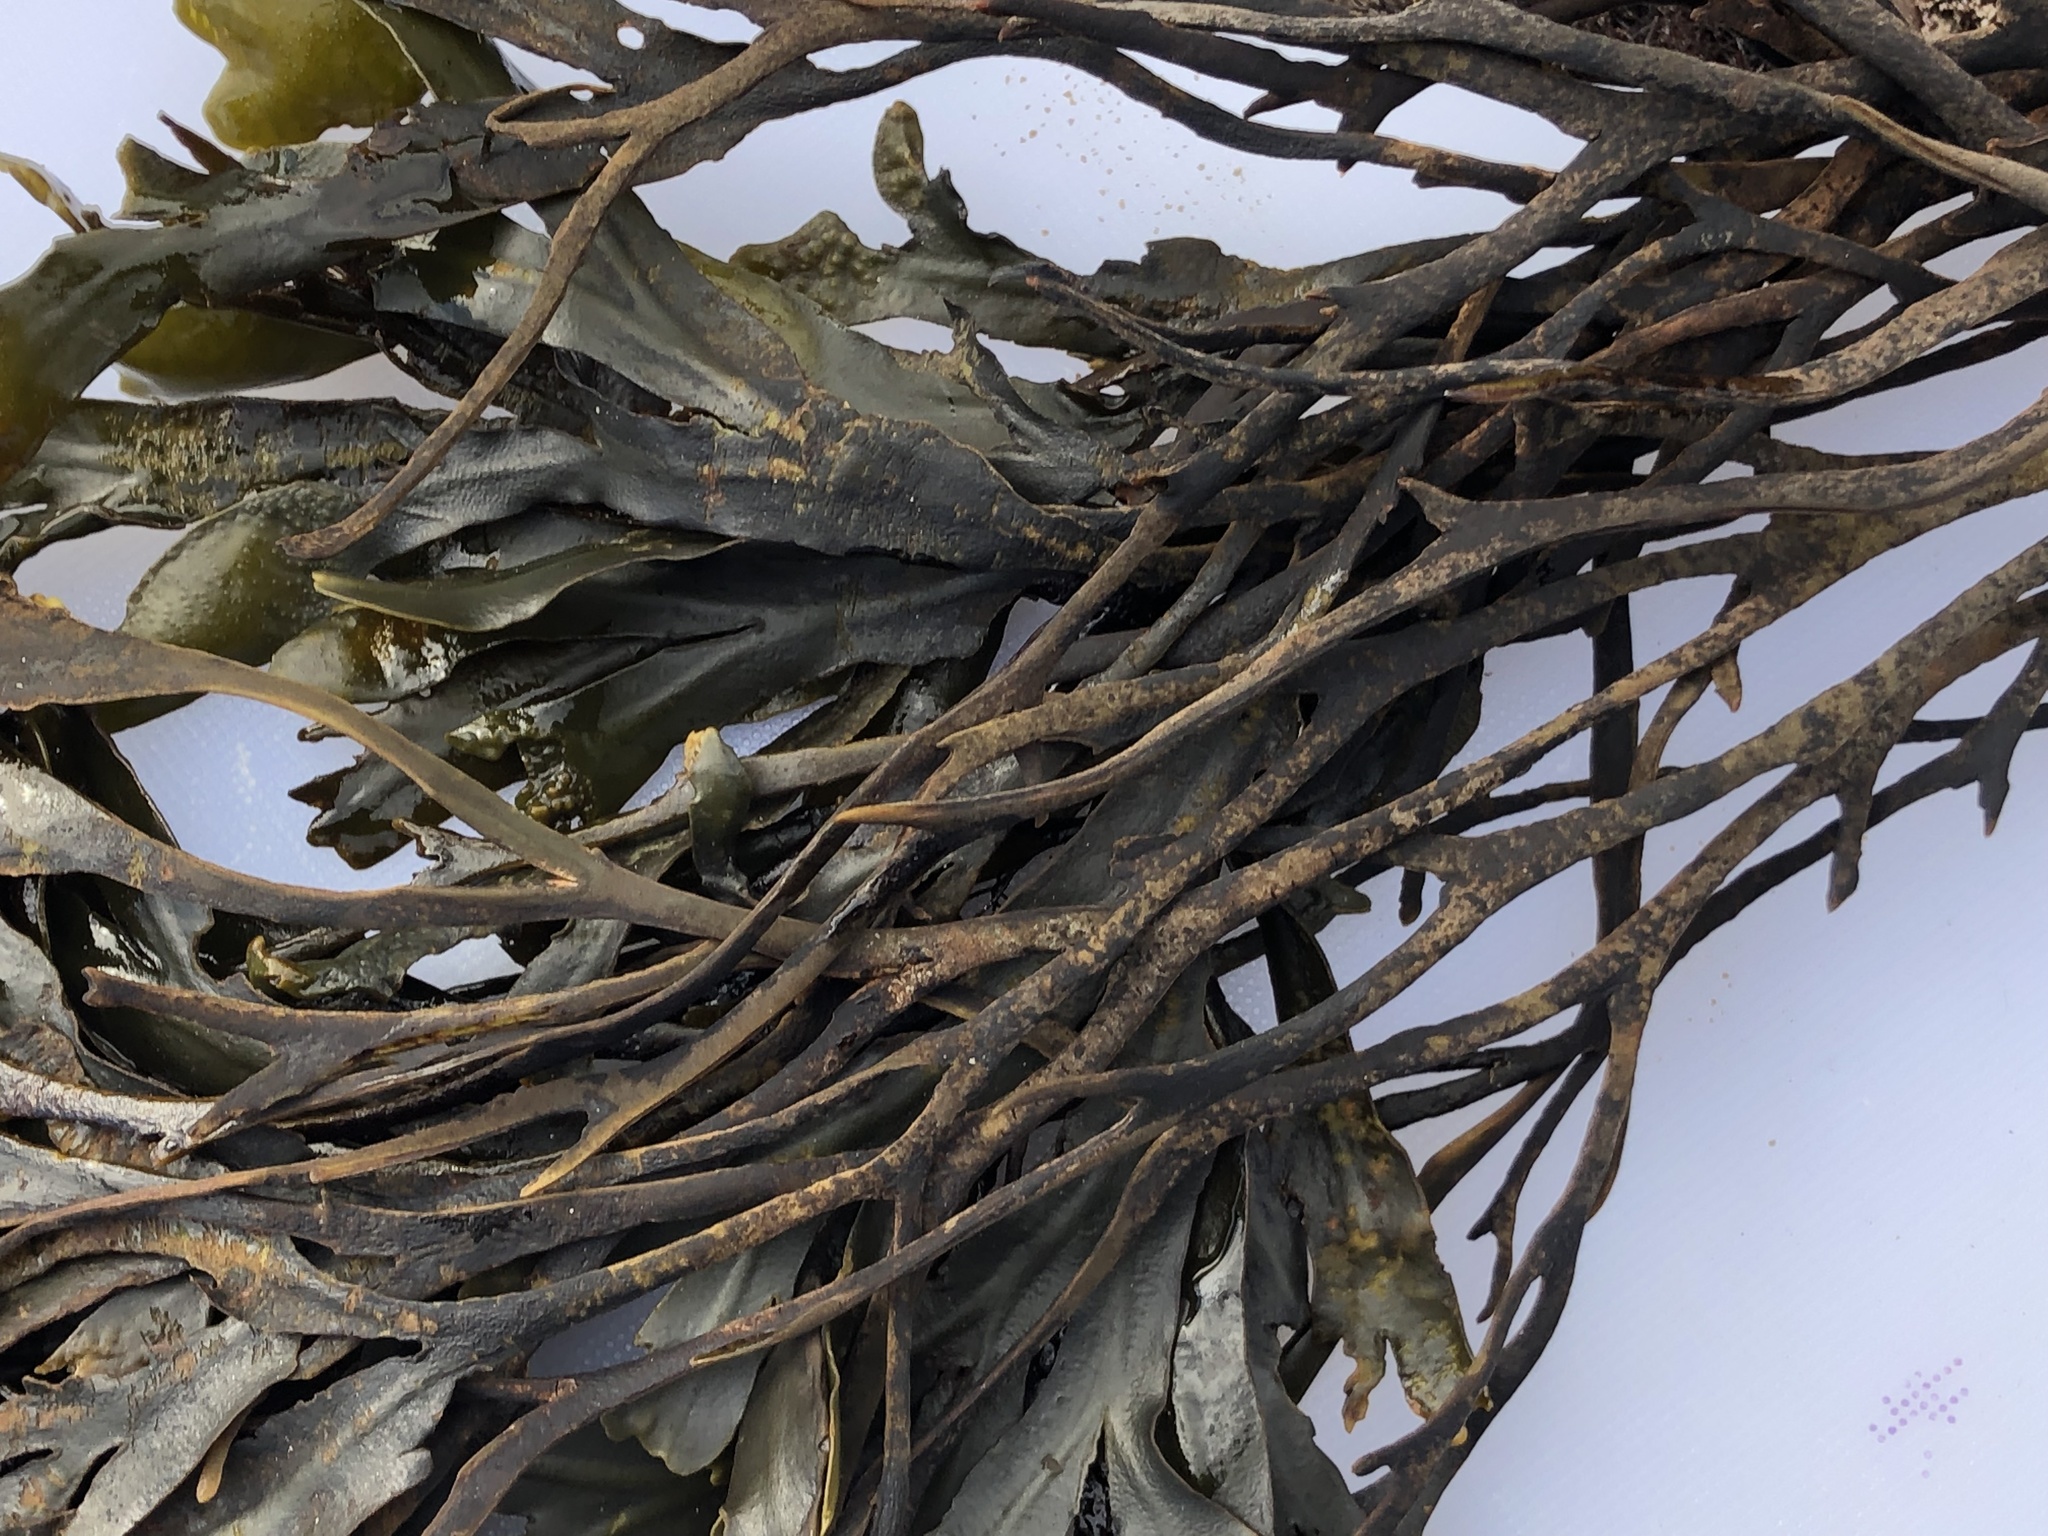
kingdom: Chromista
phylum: Ochrophyta
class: Phaeophyceae
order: Fucales
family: Fucaceae
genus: Fucus
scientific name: Fucus distichus
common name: Rockweed
